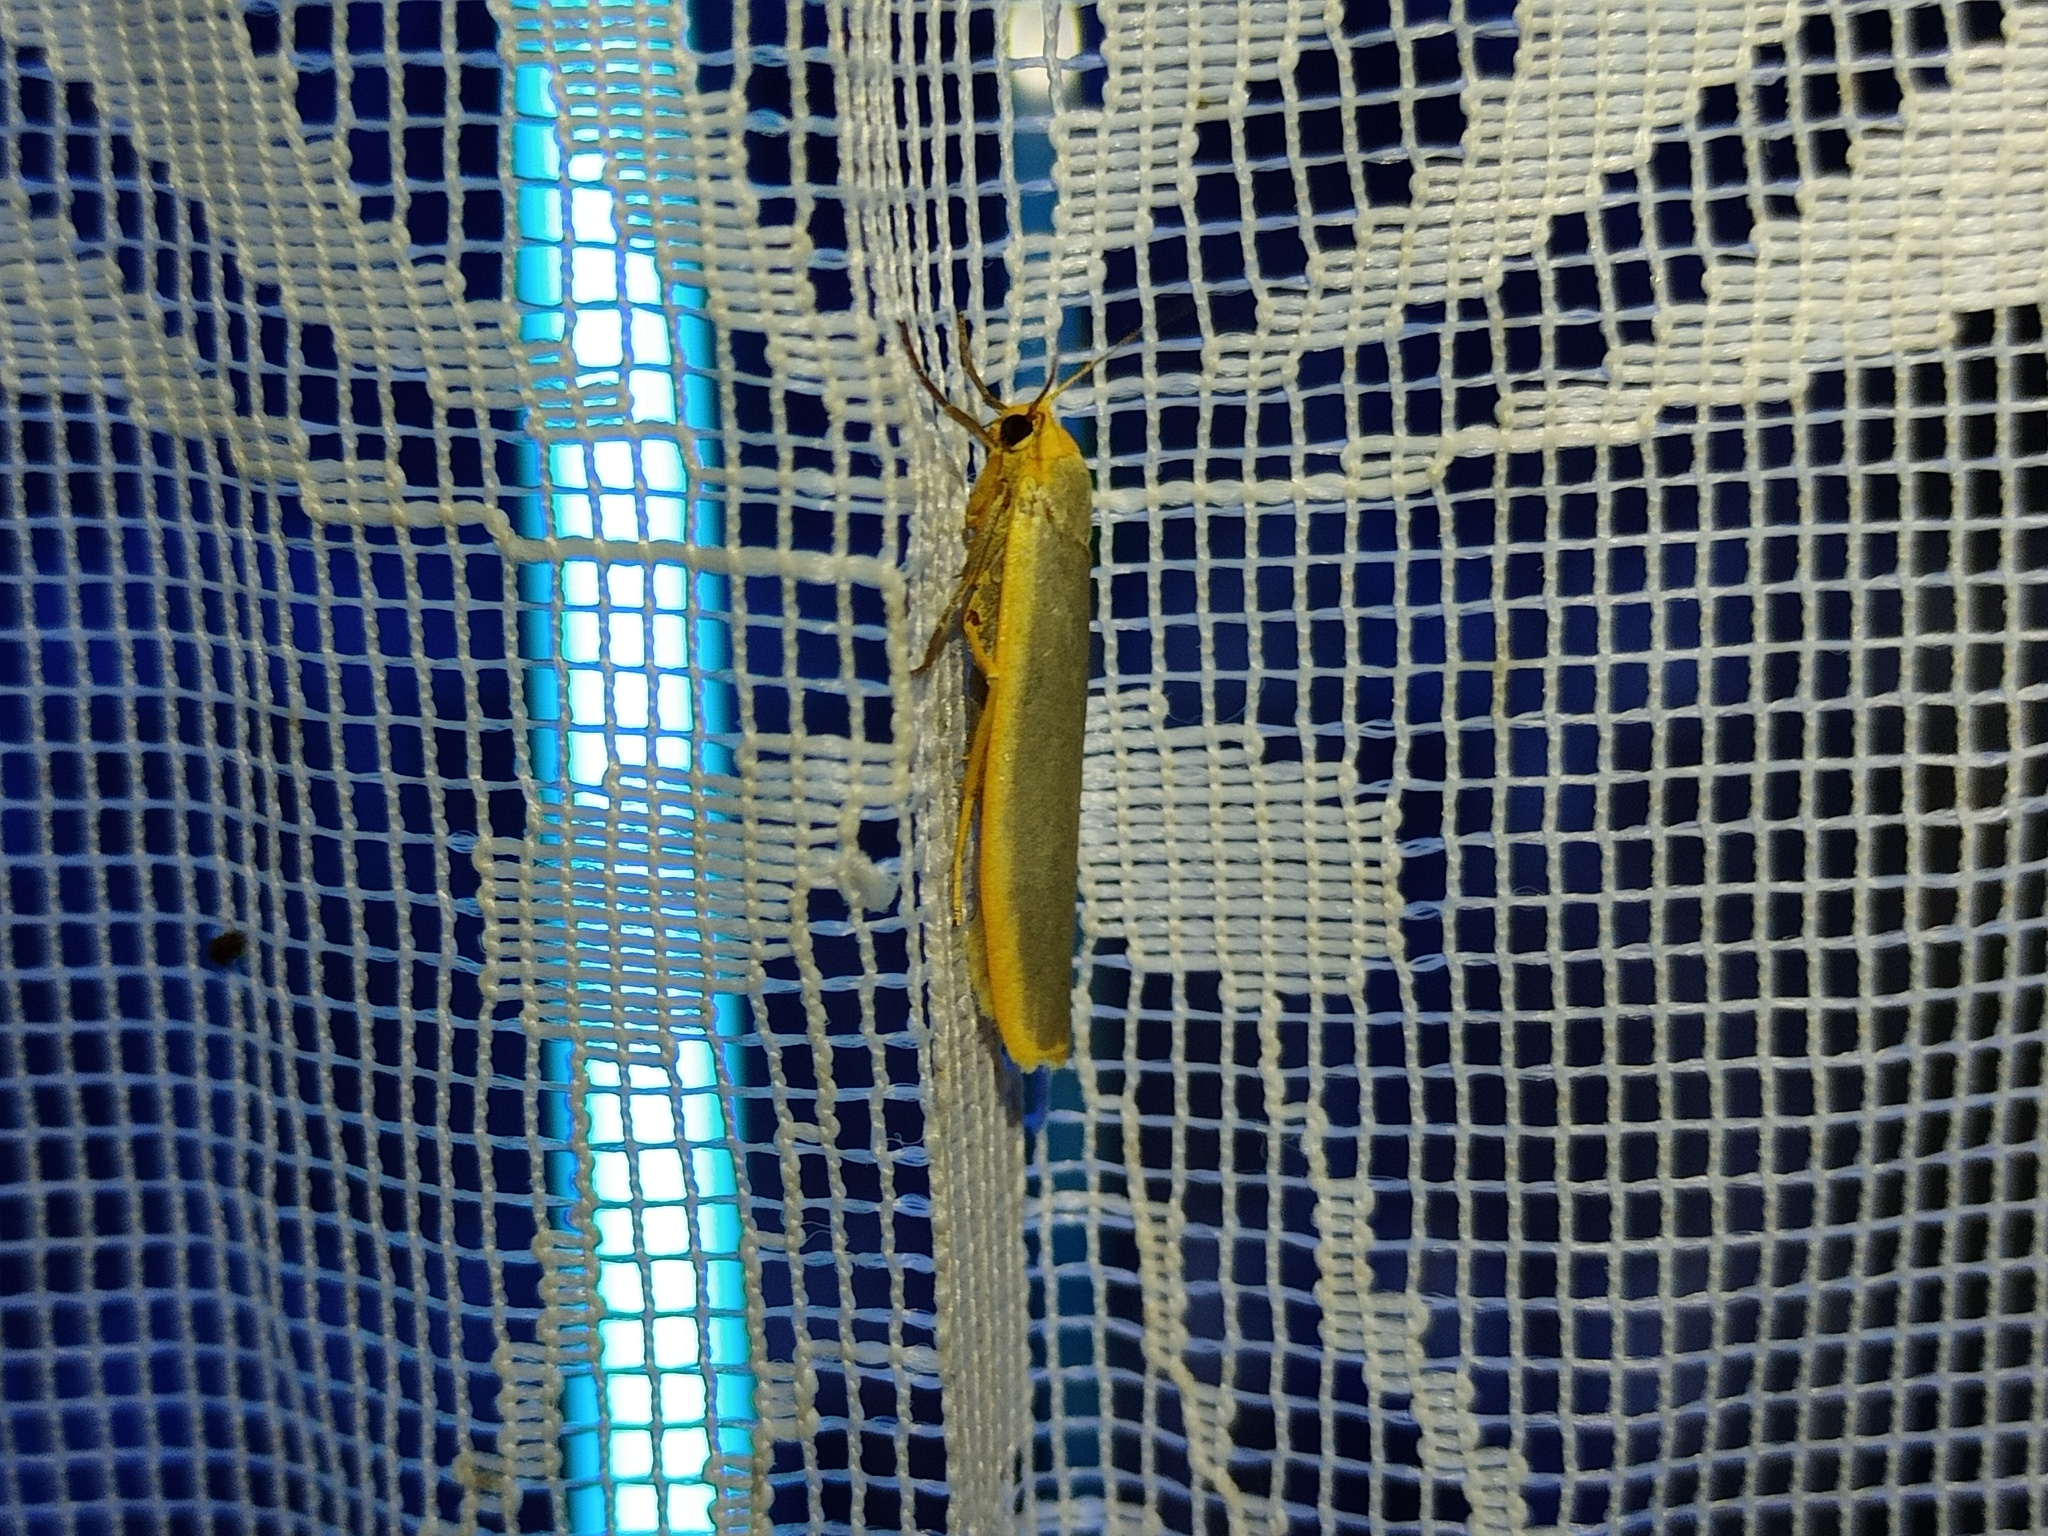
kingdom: Animalia
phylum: Arthropoda
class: Insecta
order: Lepidoptera
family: Erebidae
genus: Manulea
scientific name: Manulea complana
